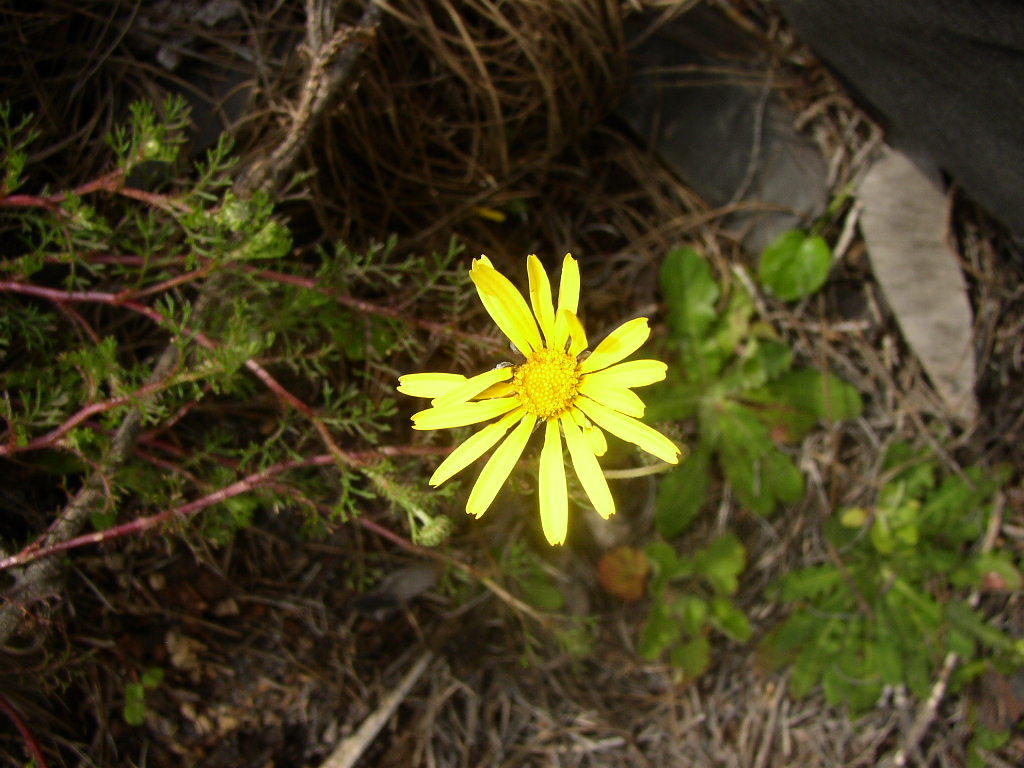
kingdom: Plantae
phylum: Tracheophyta
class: Magnoliopsida
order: Asterales
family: Asteraceae
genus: Ursinia
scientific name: Ursinia chrysanthemoides
